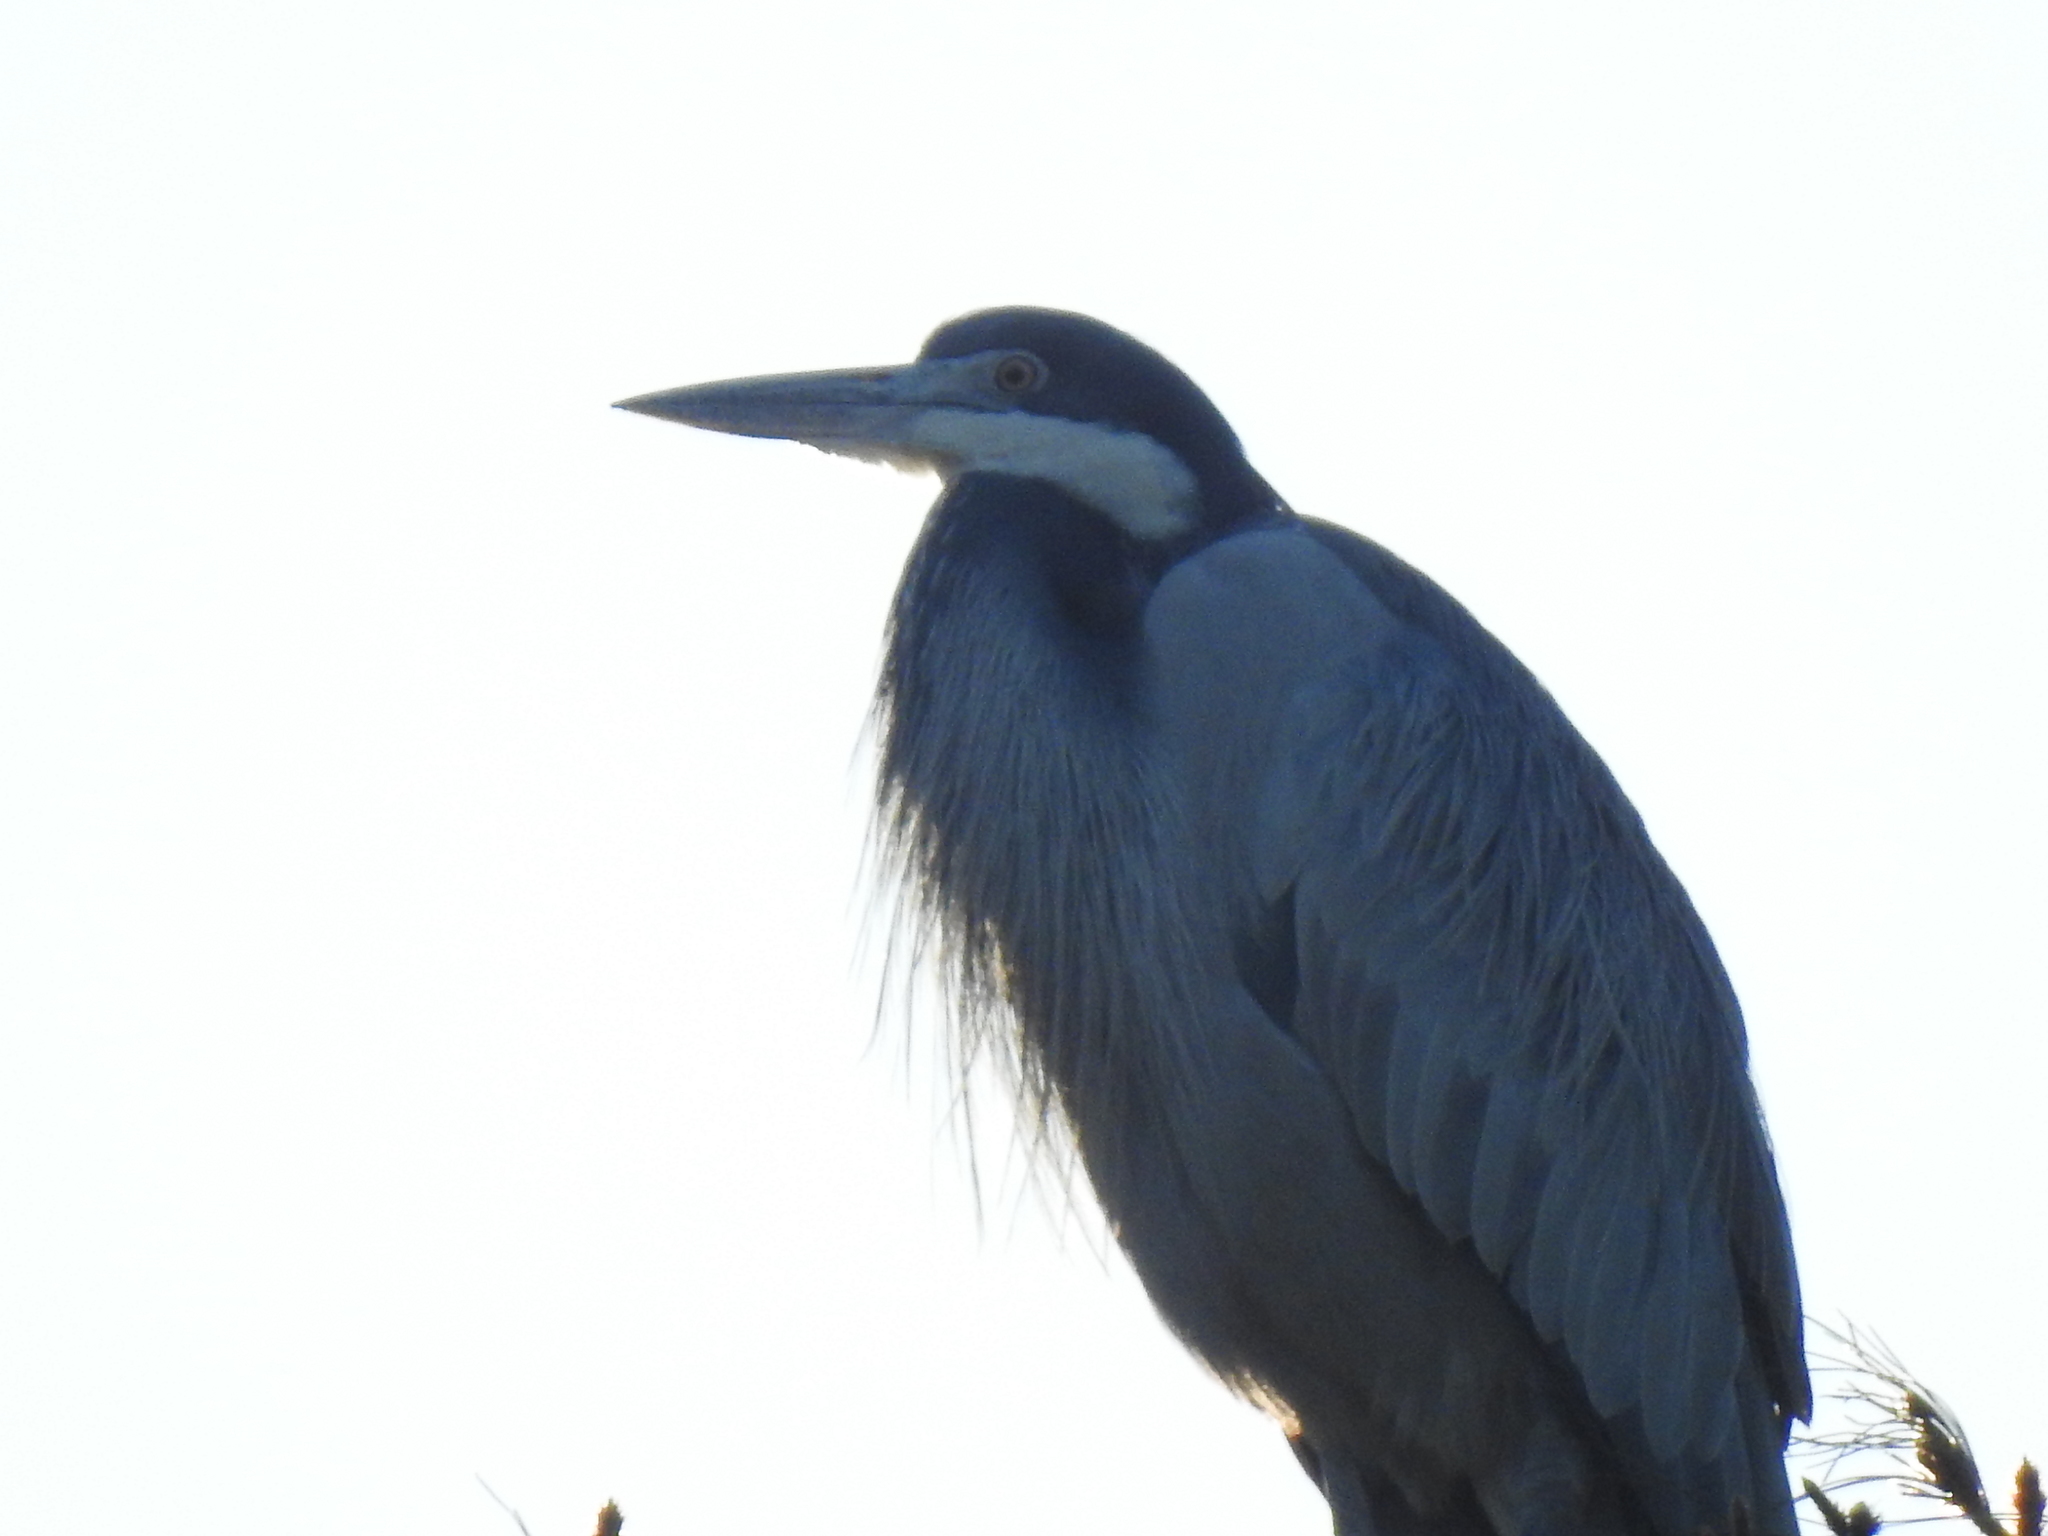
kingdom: Animalia
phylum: Chordata
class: Aves
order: Pelecaniformes
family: Ardeidae
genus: Ardea
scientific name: Ardea melanocephala
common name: Black-headed heron
